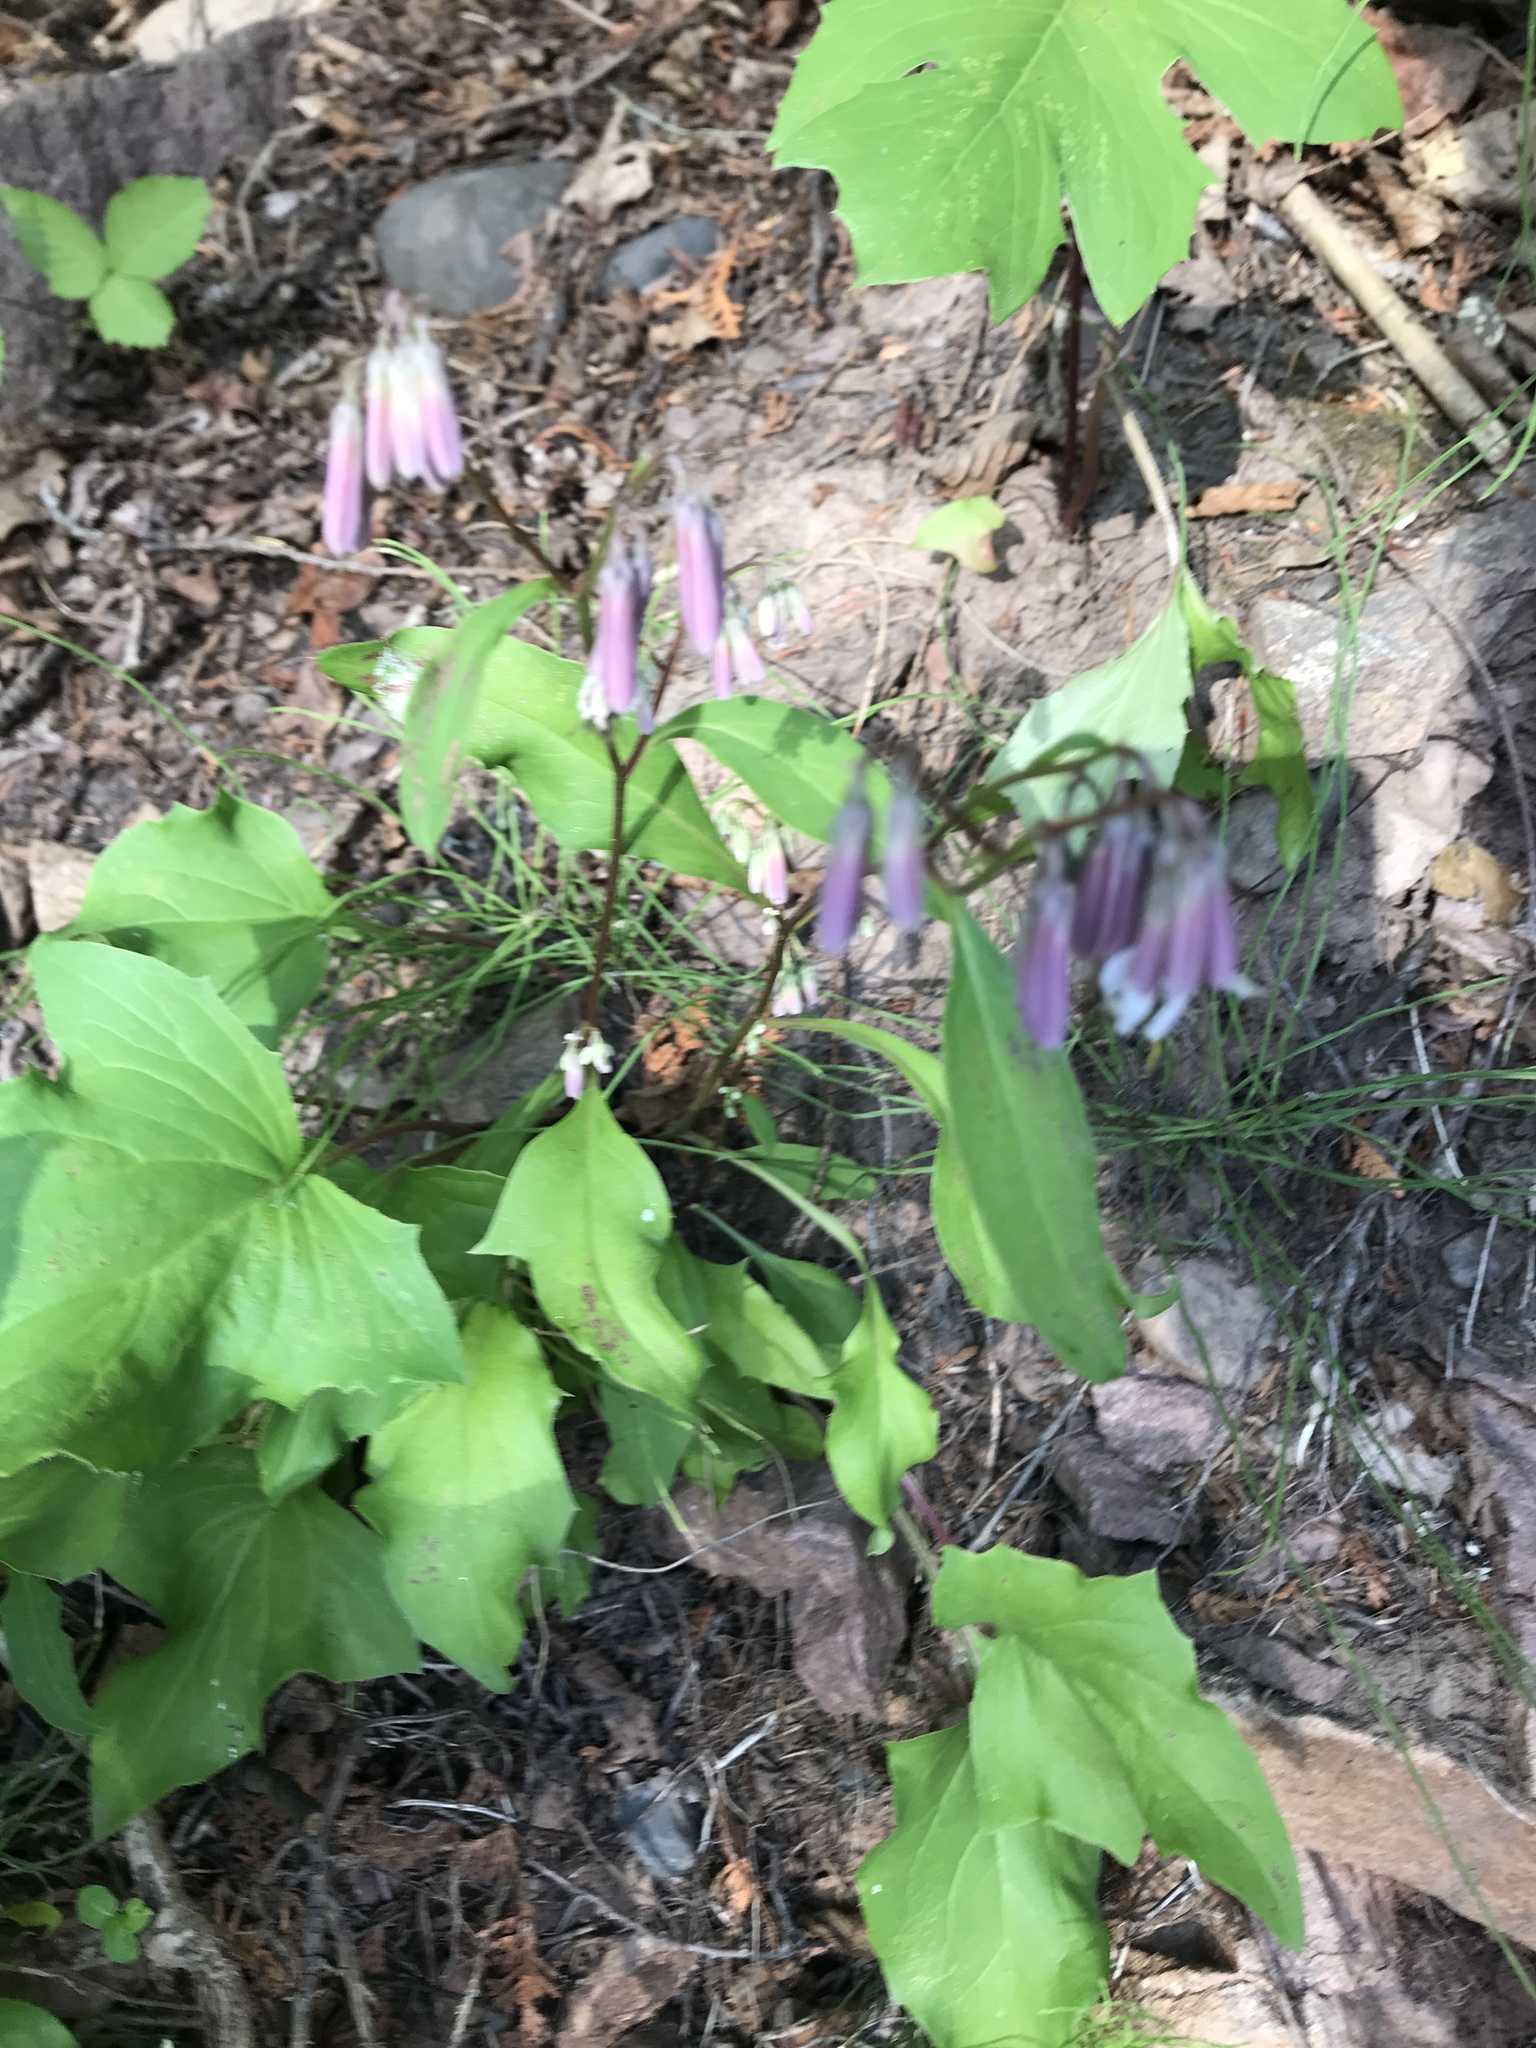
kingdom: Plantae
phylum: Tracheophyta
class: Magnoliopsida
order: Asterales
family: Asteraceae
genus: Nabalus
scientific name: Nabalus albus
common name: White rattlesnakeroot
